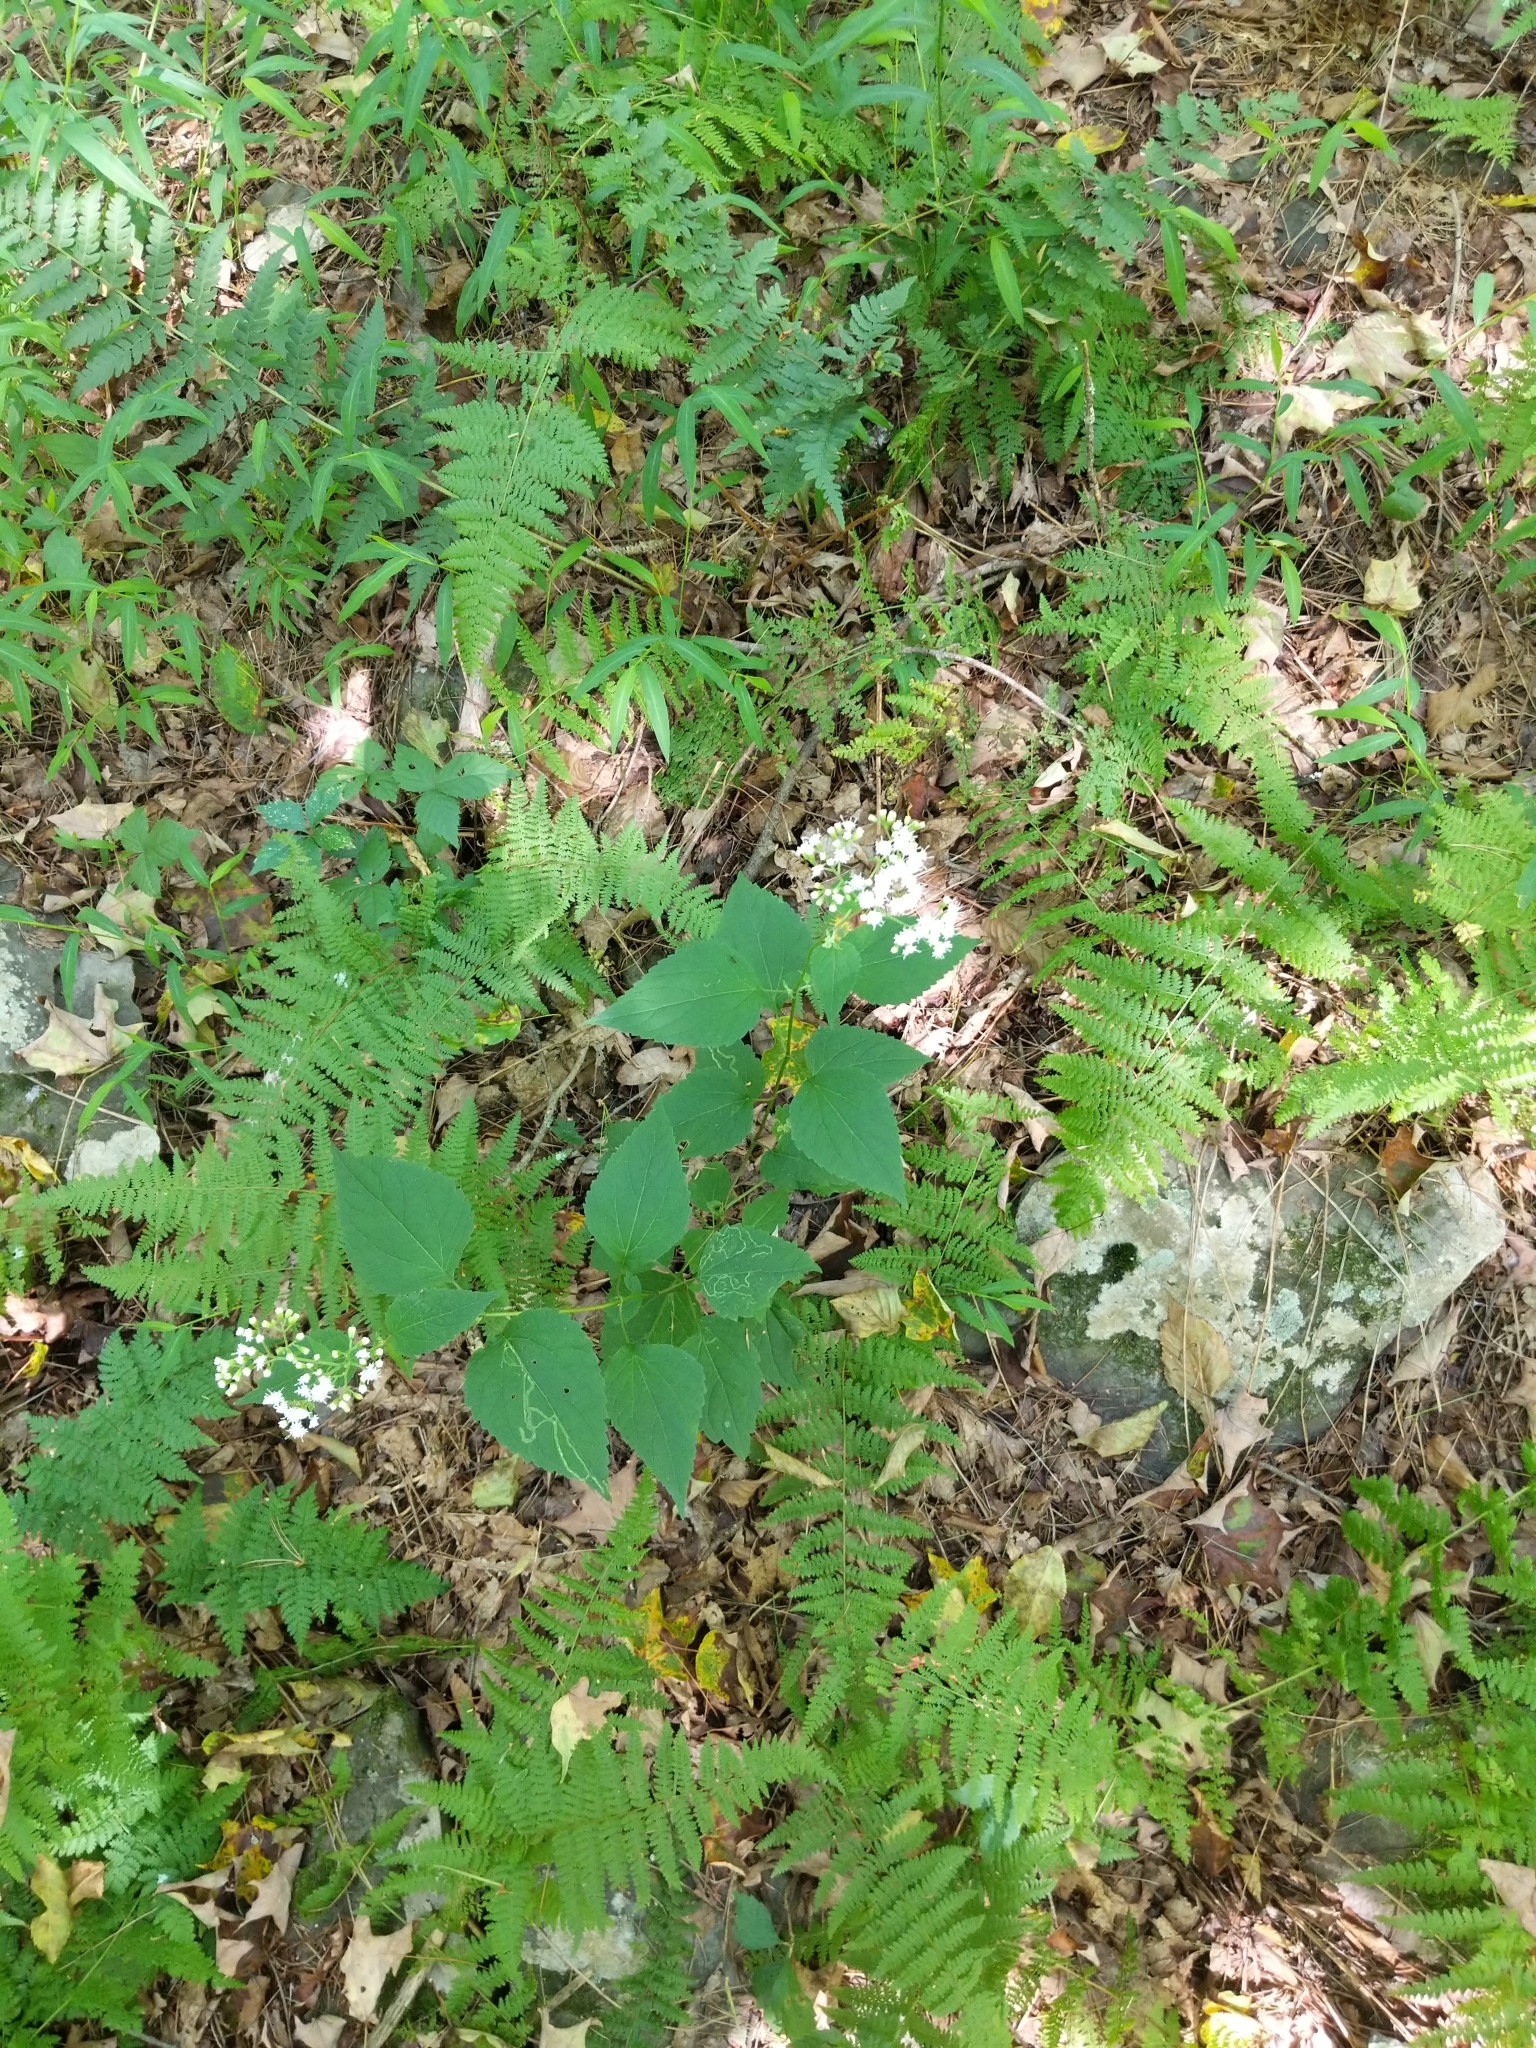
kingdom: Plantae
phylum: Tracheophyta
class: Magnoliopsida
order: Asterales
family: Asteraceae
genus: Ageratina
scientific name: Ageratina altissima
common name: White snakeroot
